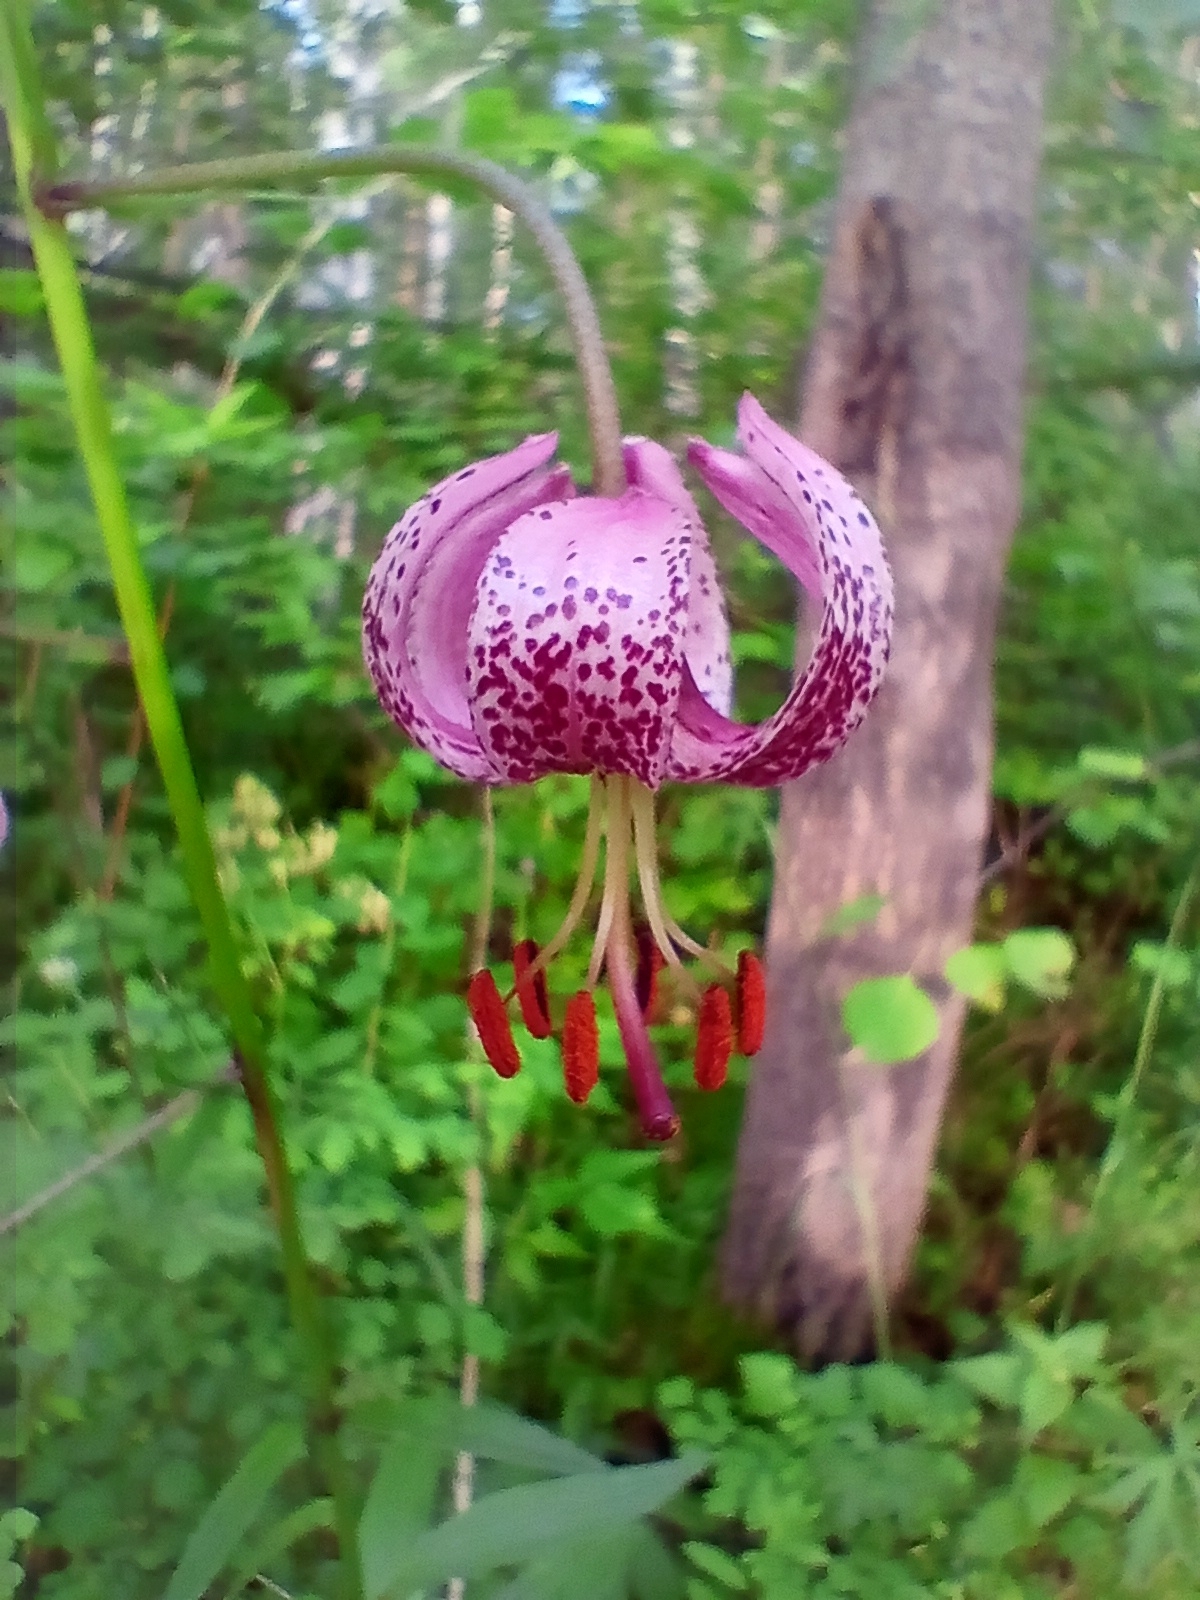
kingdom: Plantae
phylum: Tracheophyta
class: Liliopsida
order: Liliales
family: Liliaceae
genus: Lilium
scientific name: Lilium martagon
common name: Martagon lily
